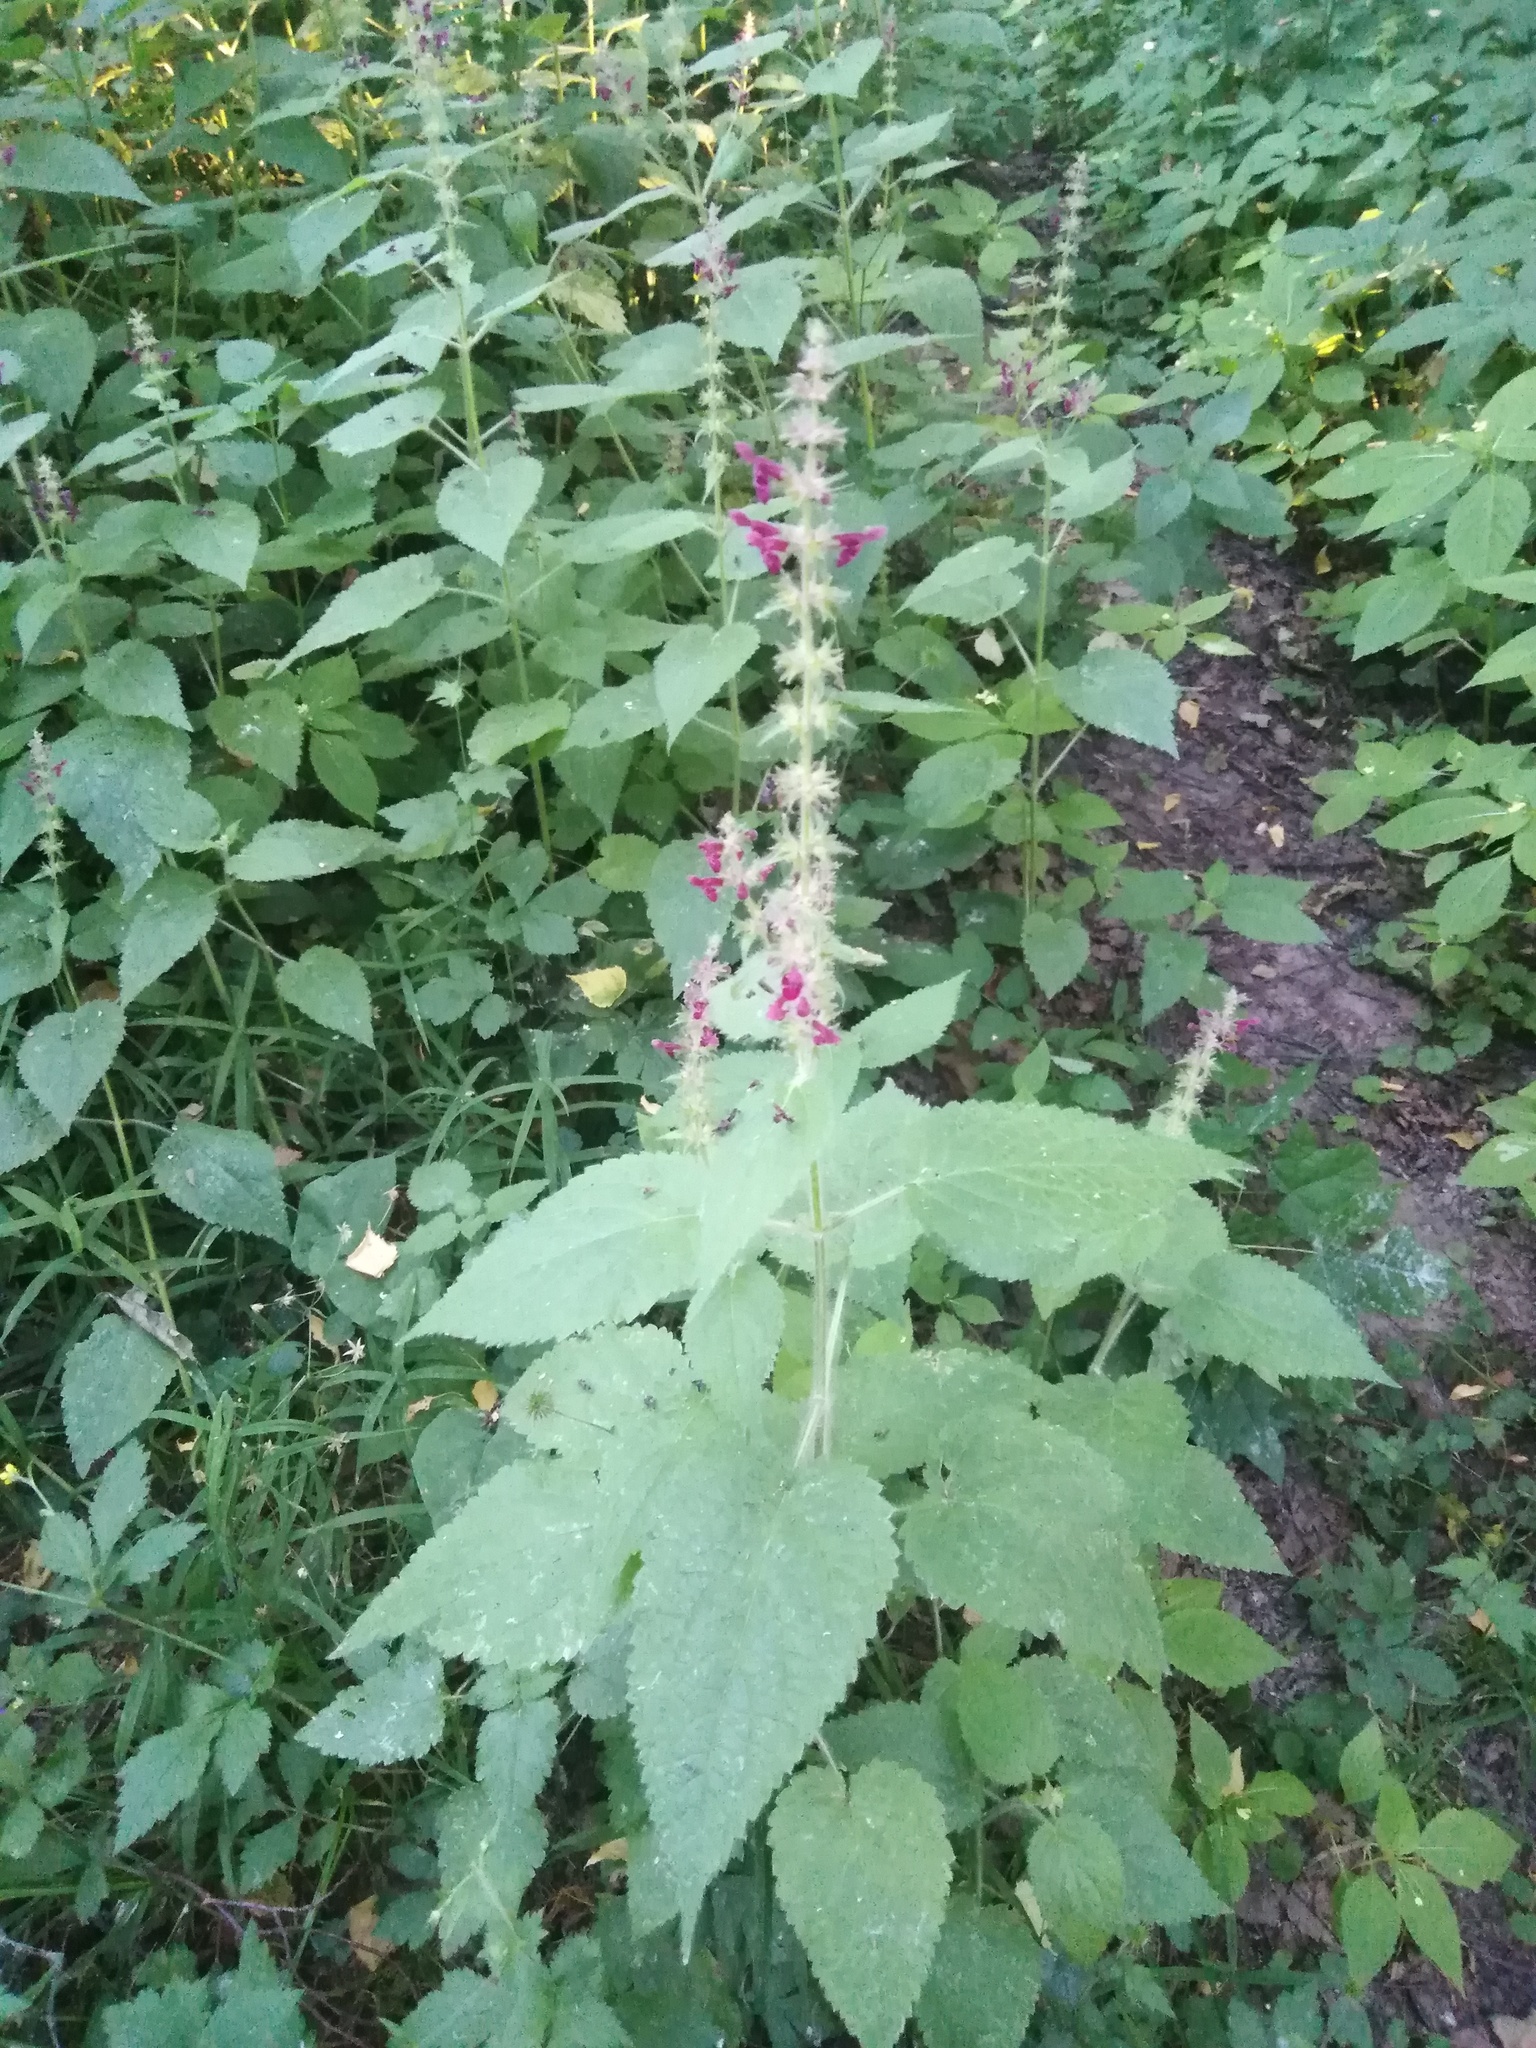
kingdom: Plantae
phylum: Tracheophyta
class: Magnoliopsida
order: Lamiales
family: Lamiaceae
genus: Stachys
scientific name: Stachys sylvatica
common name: Hedge woundwort
